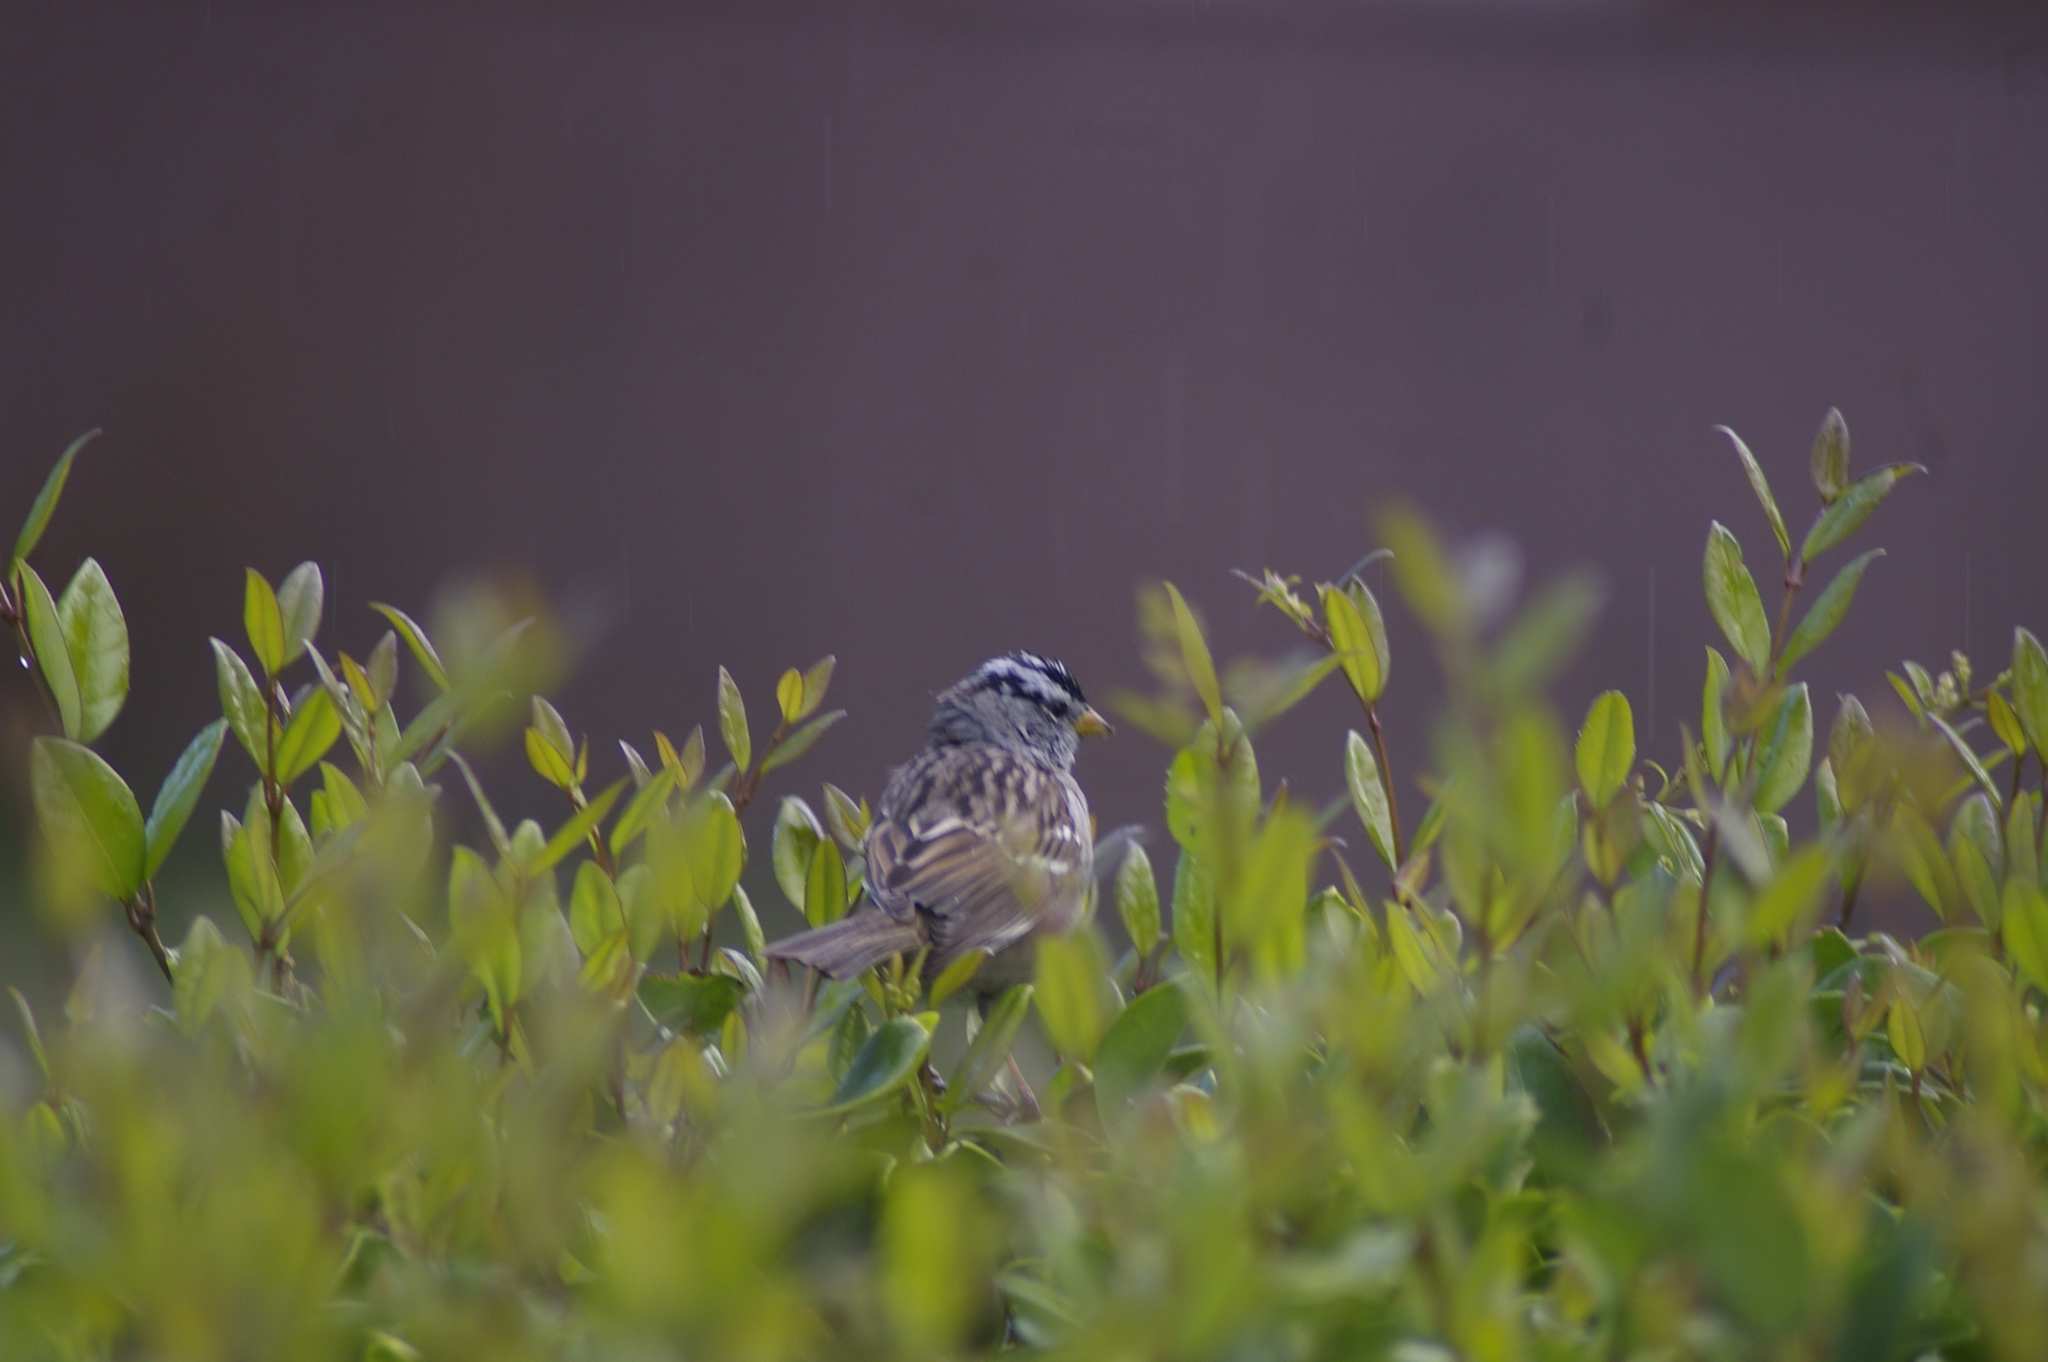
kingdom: Animalia
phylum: Chordata
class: Aves
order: Passeriformes
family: Passerellidae
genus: Zonotrichia
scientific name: Zonotrichia leucophrys
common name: White-crowned sparrow
